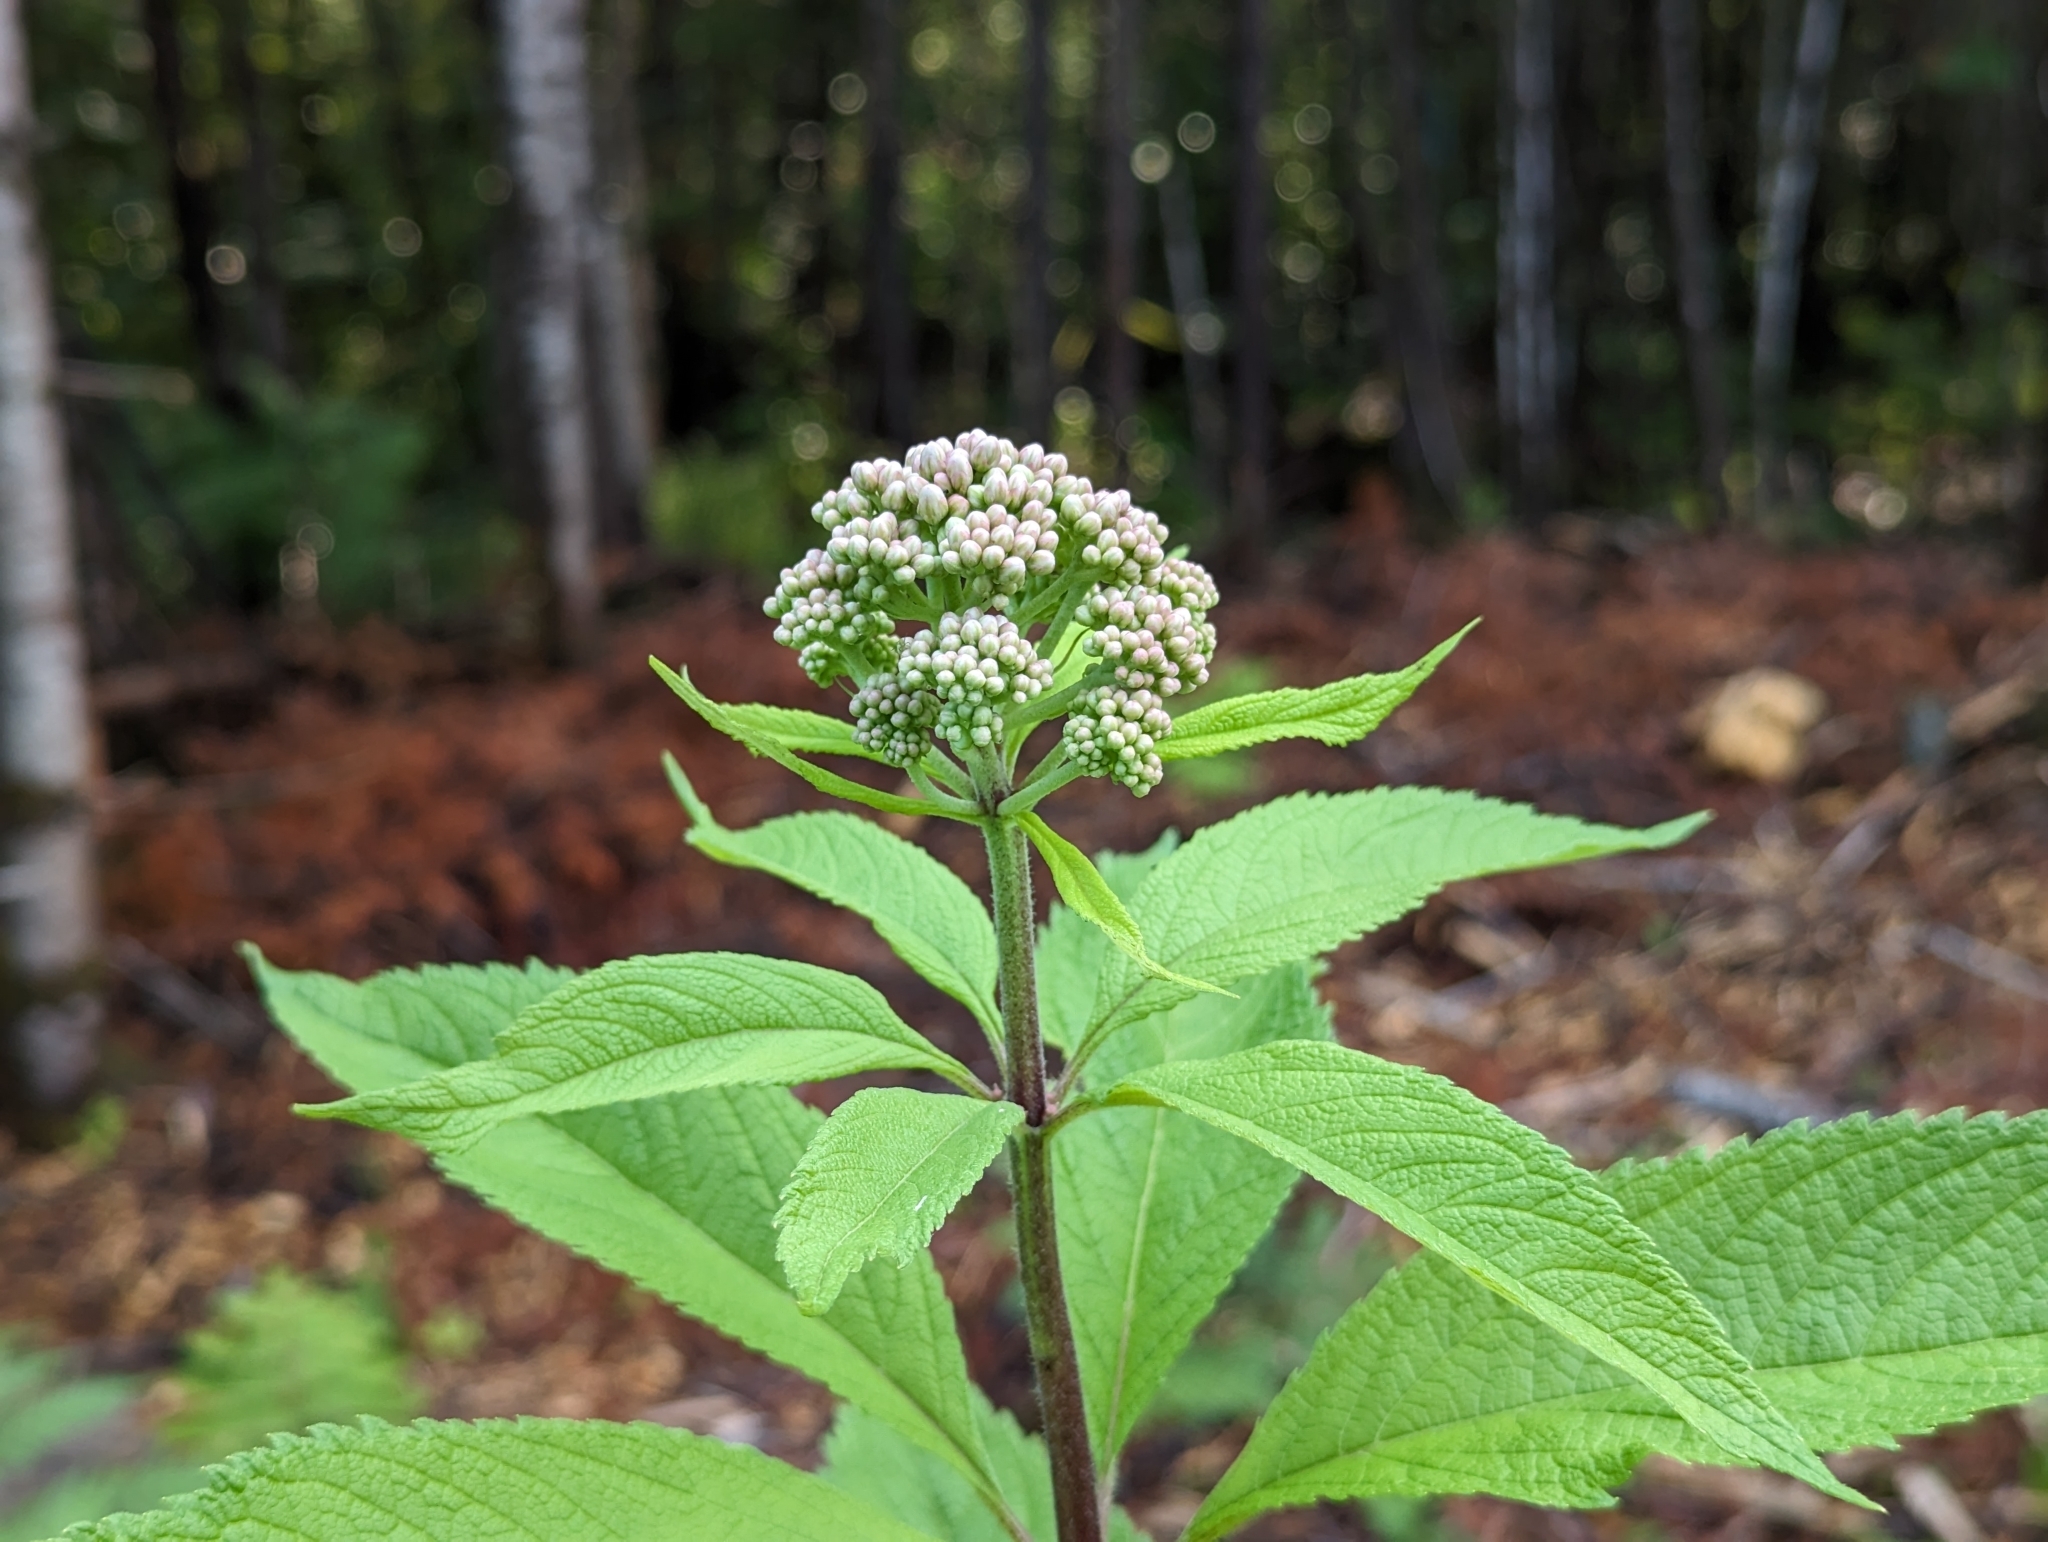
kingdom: Plantae
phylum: Tracheophyta
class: Magnoliopsida
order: Asterales
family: Asteraceae
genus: Eutrochium
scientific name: Eutrochium maculatum
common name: Spotted joe pye weed
